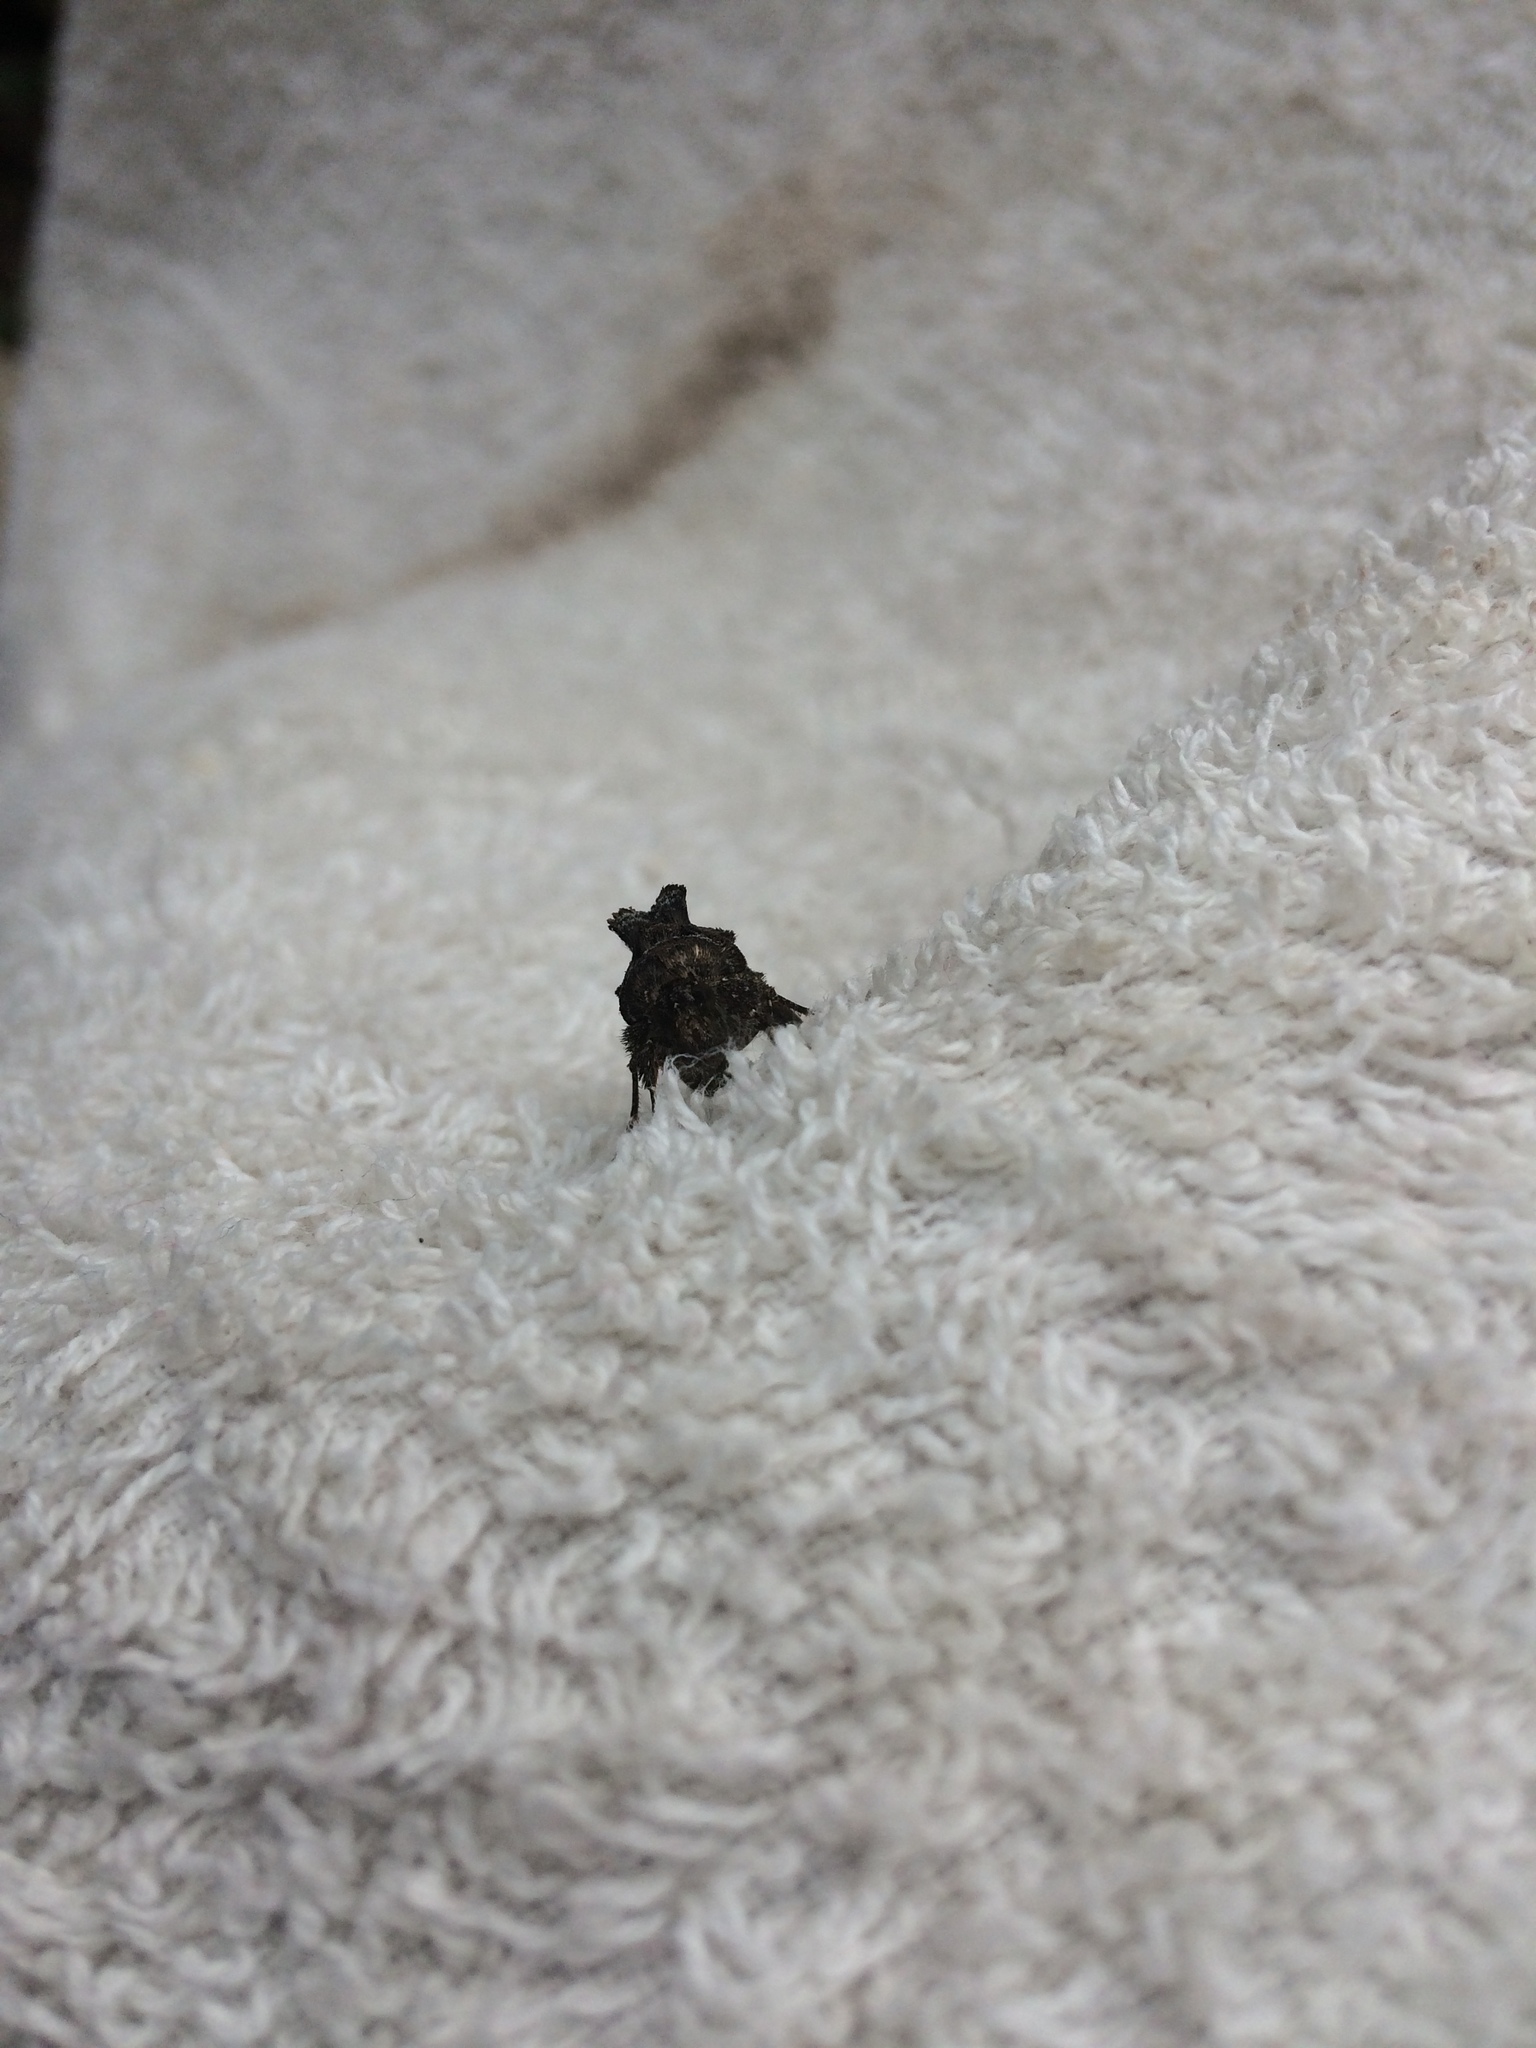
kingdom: Animalia
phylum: Arthropoda
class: Insecta
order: Lepidoptera
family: Noctuidae
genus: Ctenoplusia
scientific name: Ctenoplusia limbirena
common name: Scar bank gem
